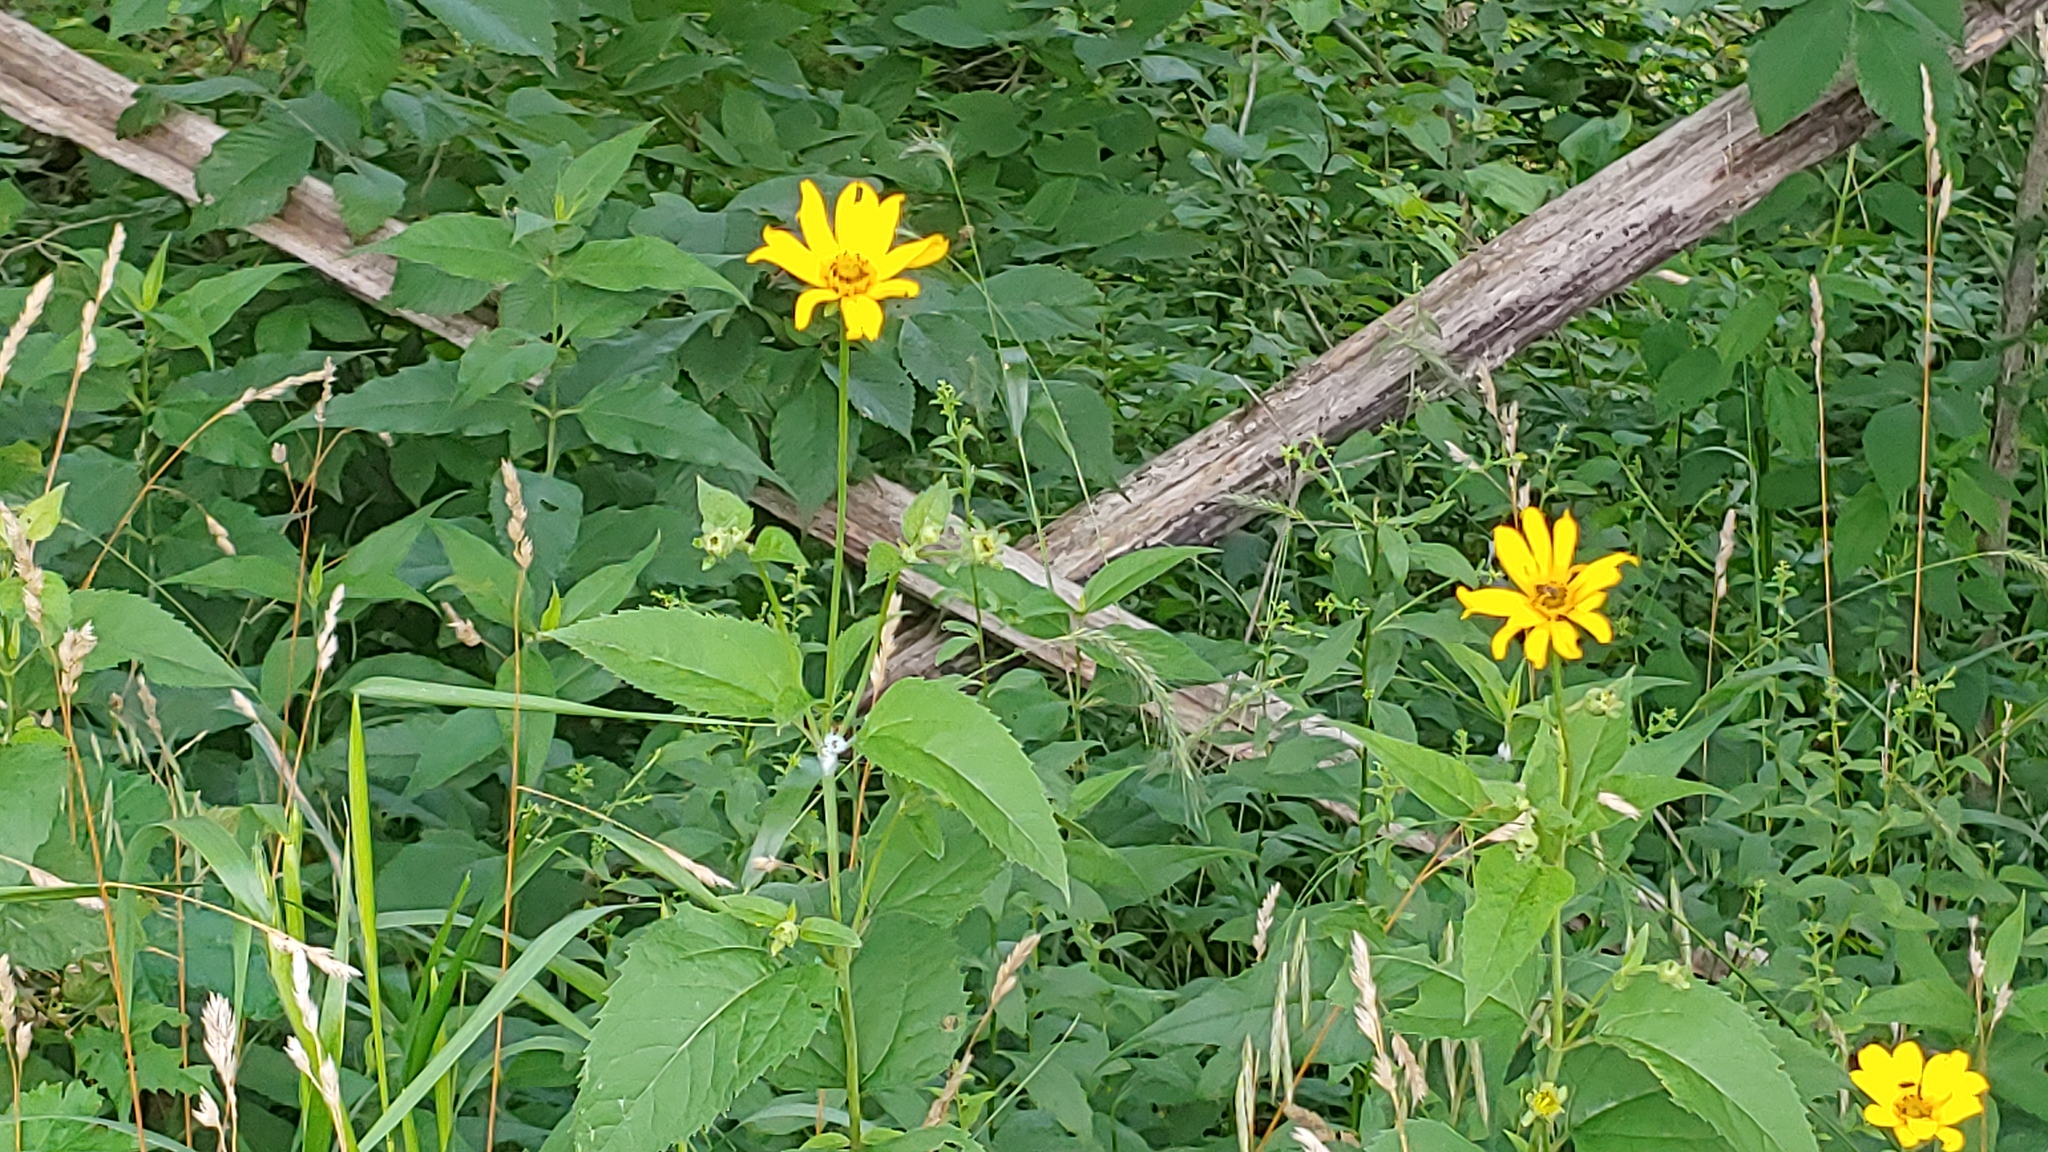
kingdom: Plantae
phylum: Tracheophyta
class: Magnoliopsida
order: Asterales
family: Asteraceae
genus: Heliopsis
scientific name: Heliopsis helianthoides
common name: False sunflower
